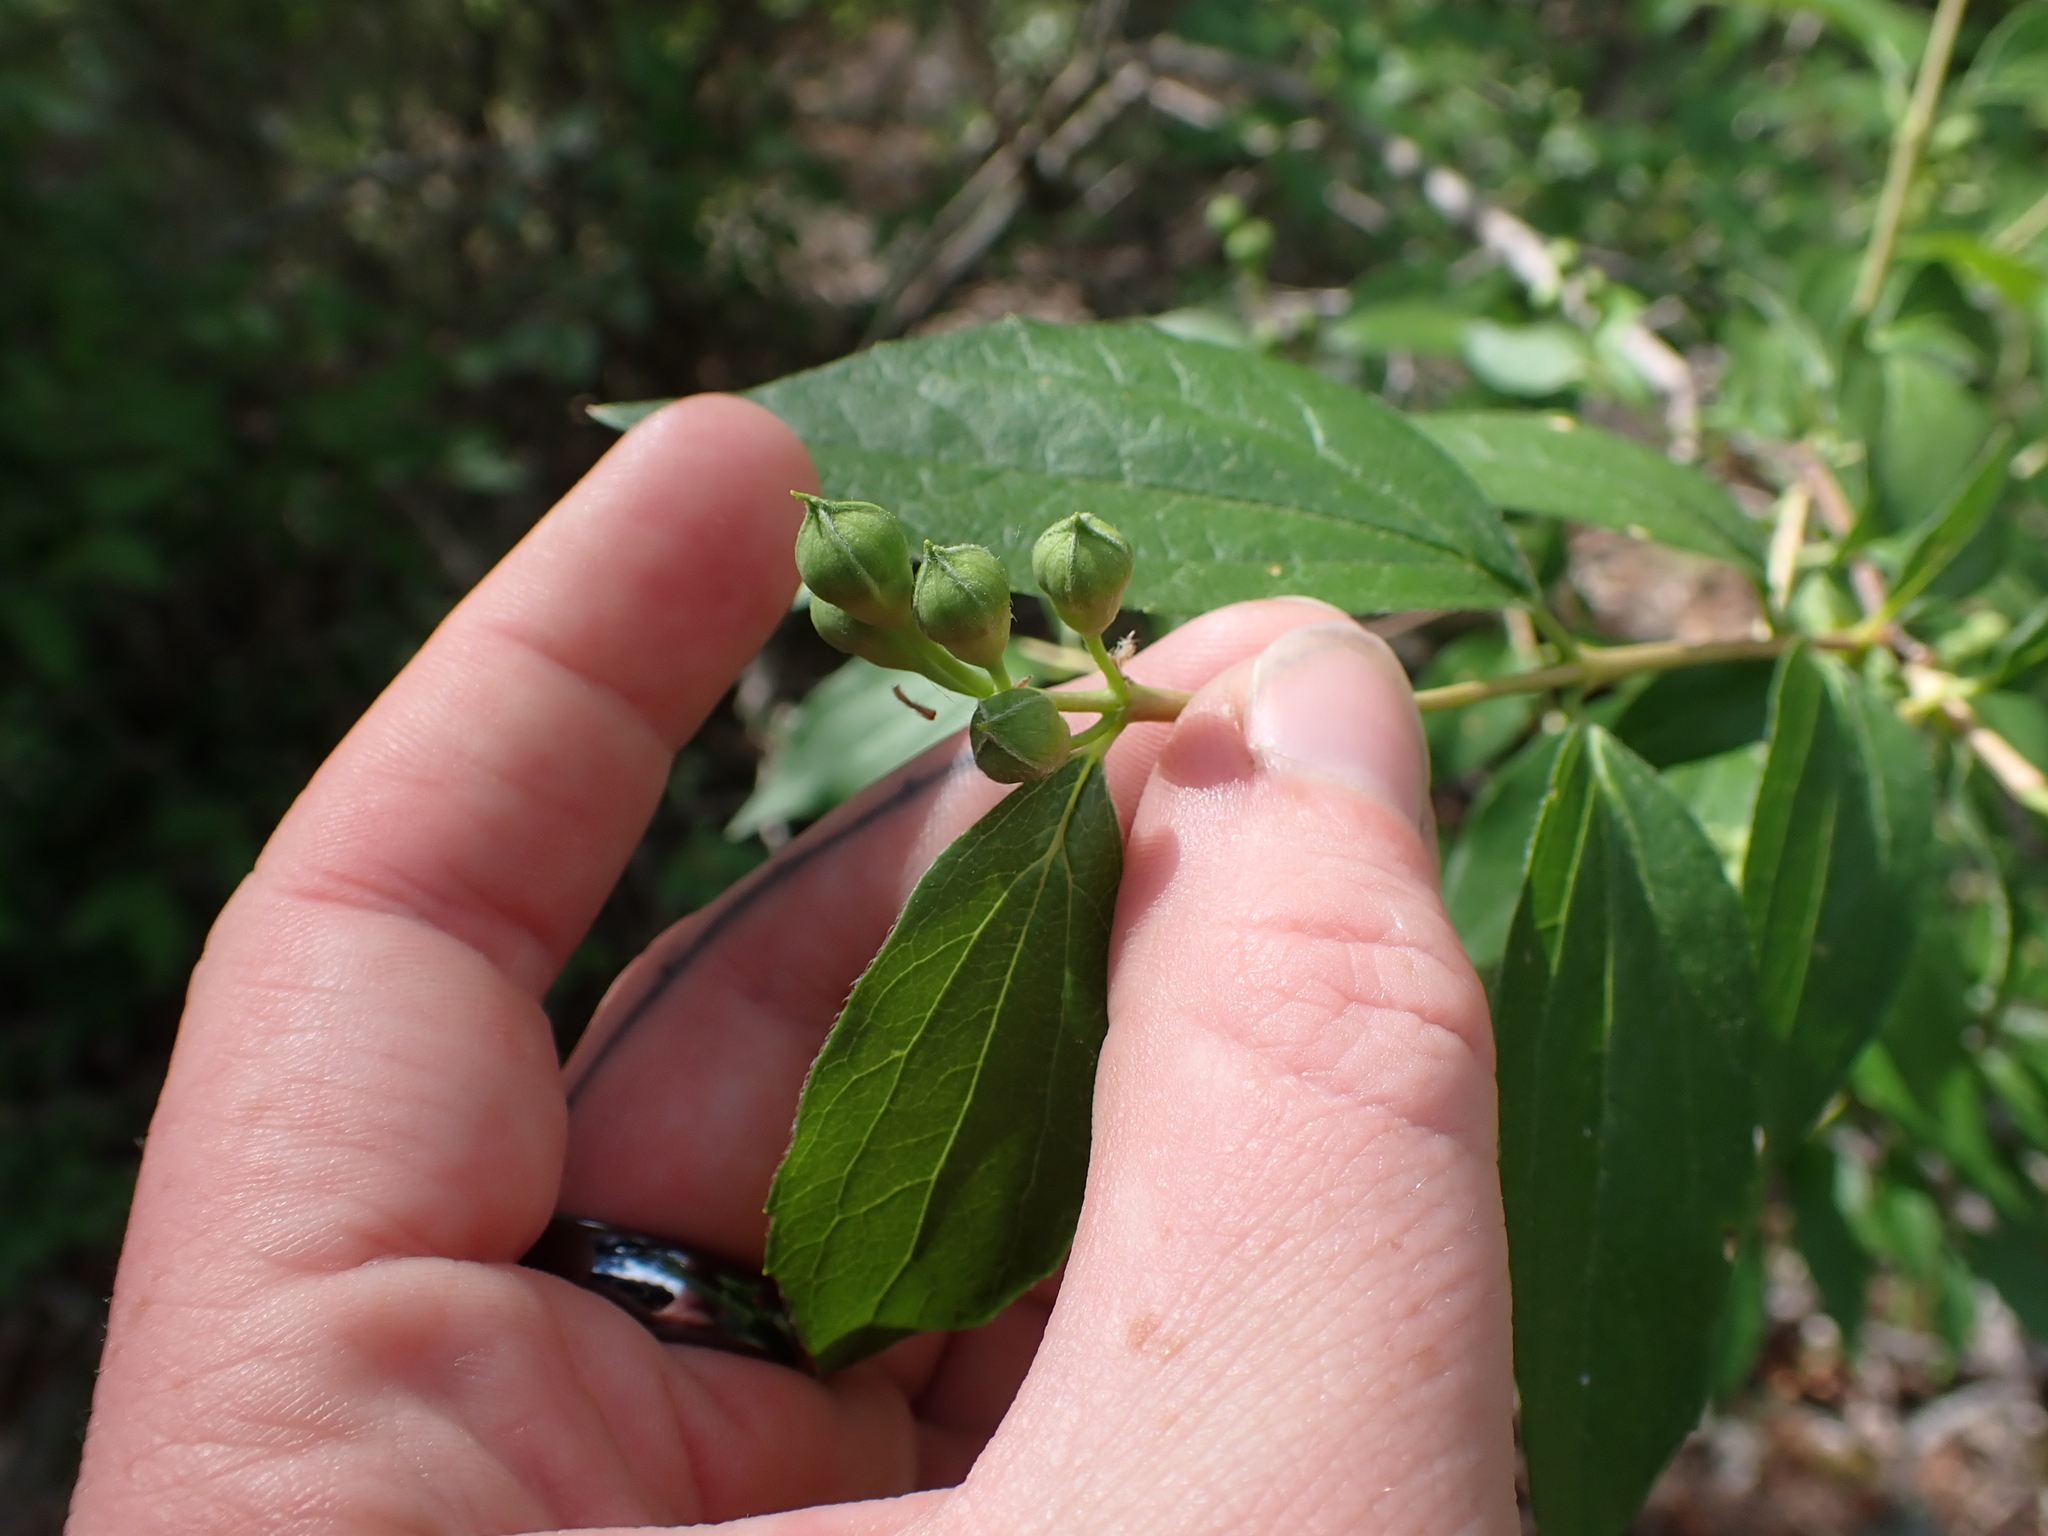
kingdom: Plantae
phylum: Tracheophyta
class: Magnoliopsida
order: Cornales
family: Hydrangeaceae
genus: Philadelphus
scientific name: Philadelphus lewisii
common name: Lewis's mock orange
